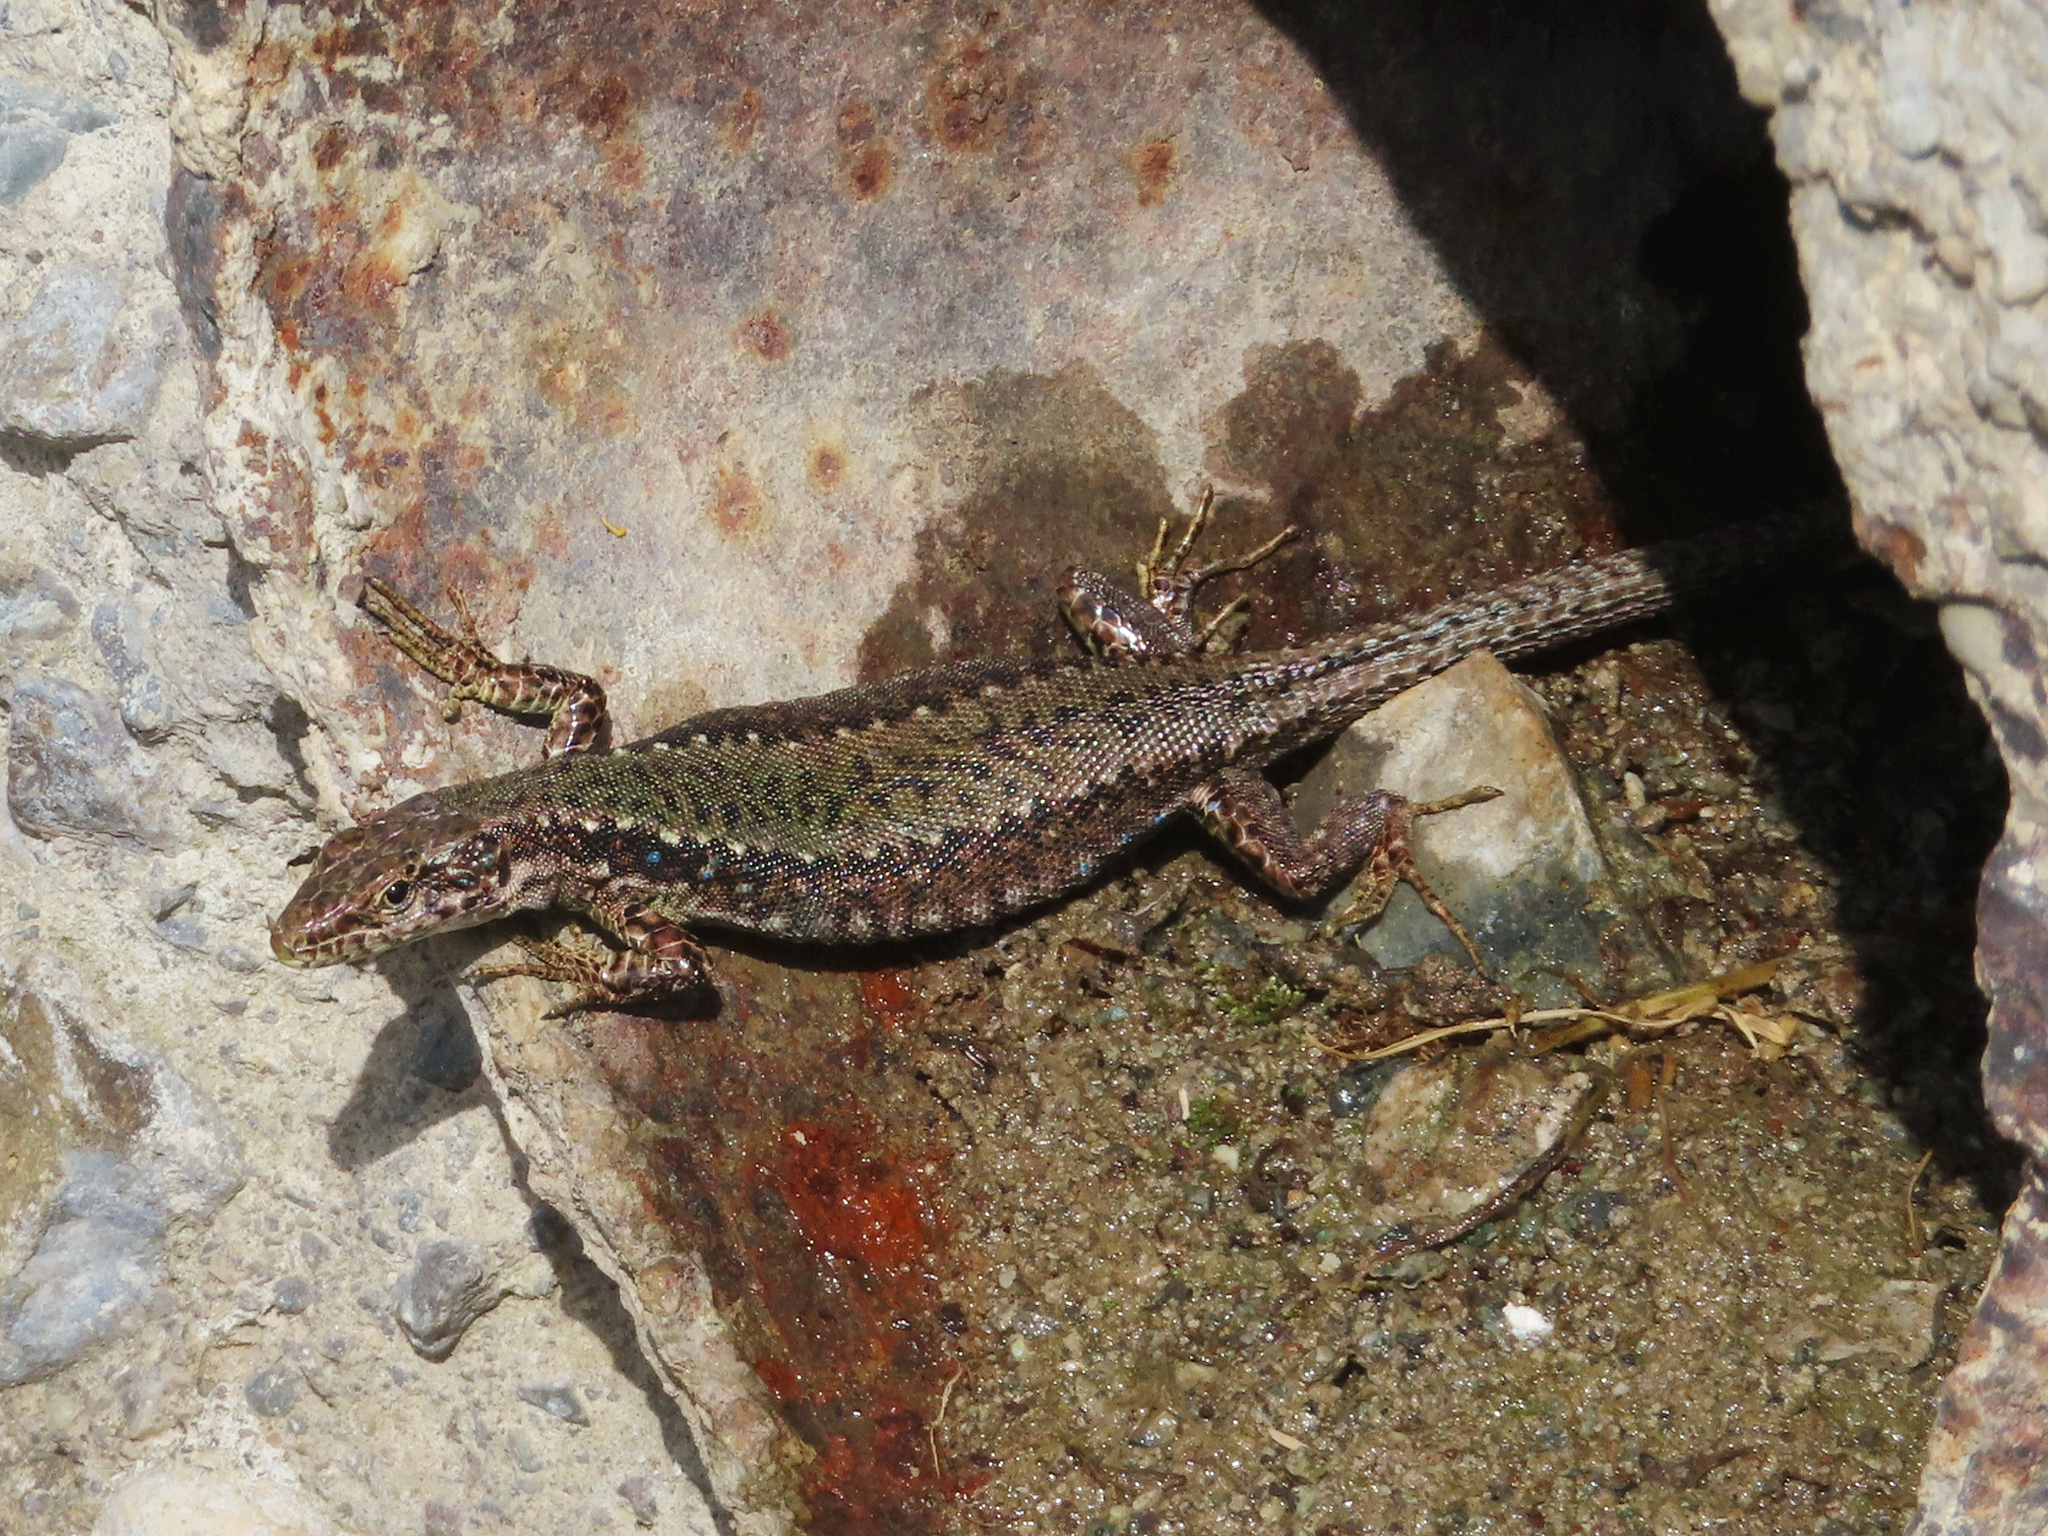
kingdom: Animalia
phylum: Chordata
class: Squamata
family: Lacertidae
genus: Darevskia
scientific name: Darevskia armeniaca
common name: Armenian lizard
